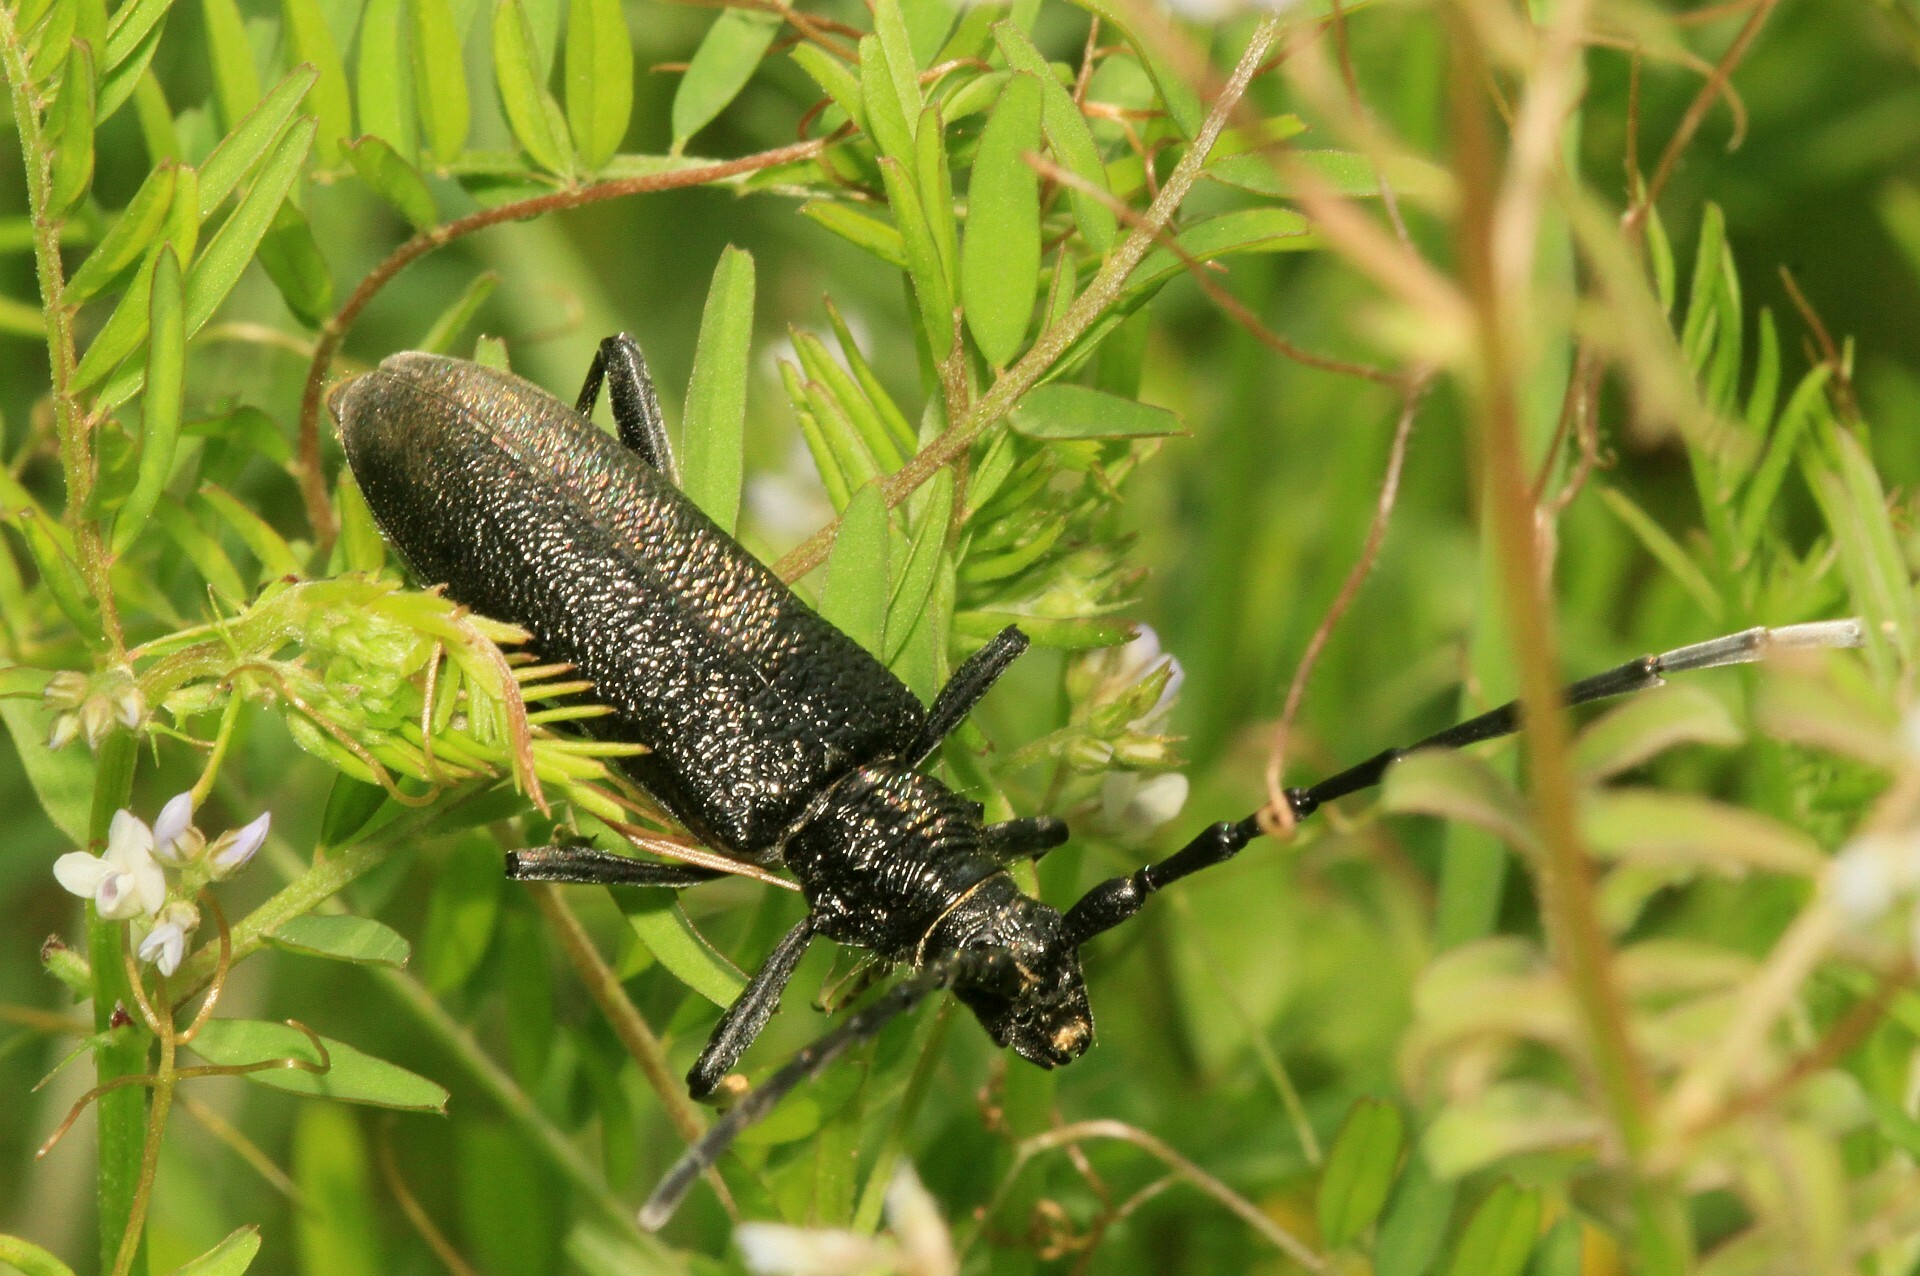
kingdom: Animalia
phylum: Arthropoda
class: Insecta
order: Coleoptera
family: Cerambycidae
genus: Cerambyx
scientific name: Cerambyx scopolii
